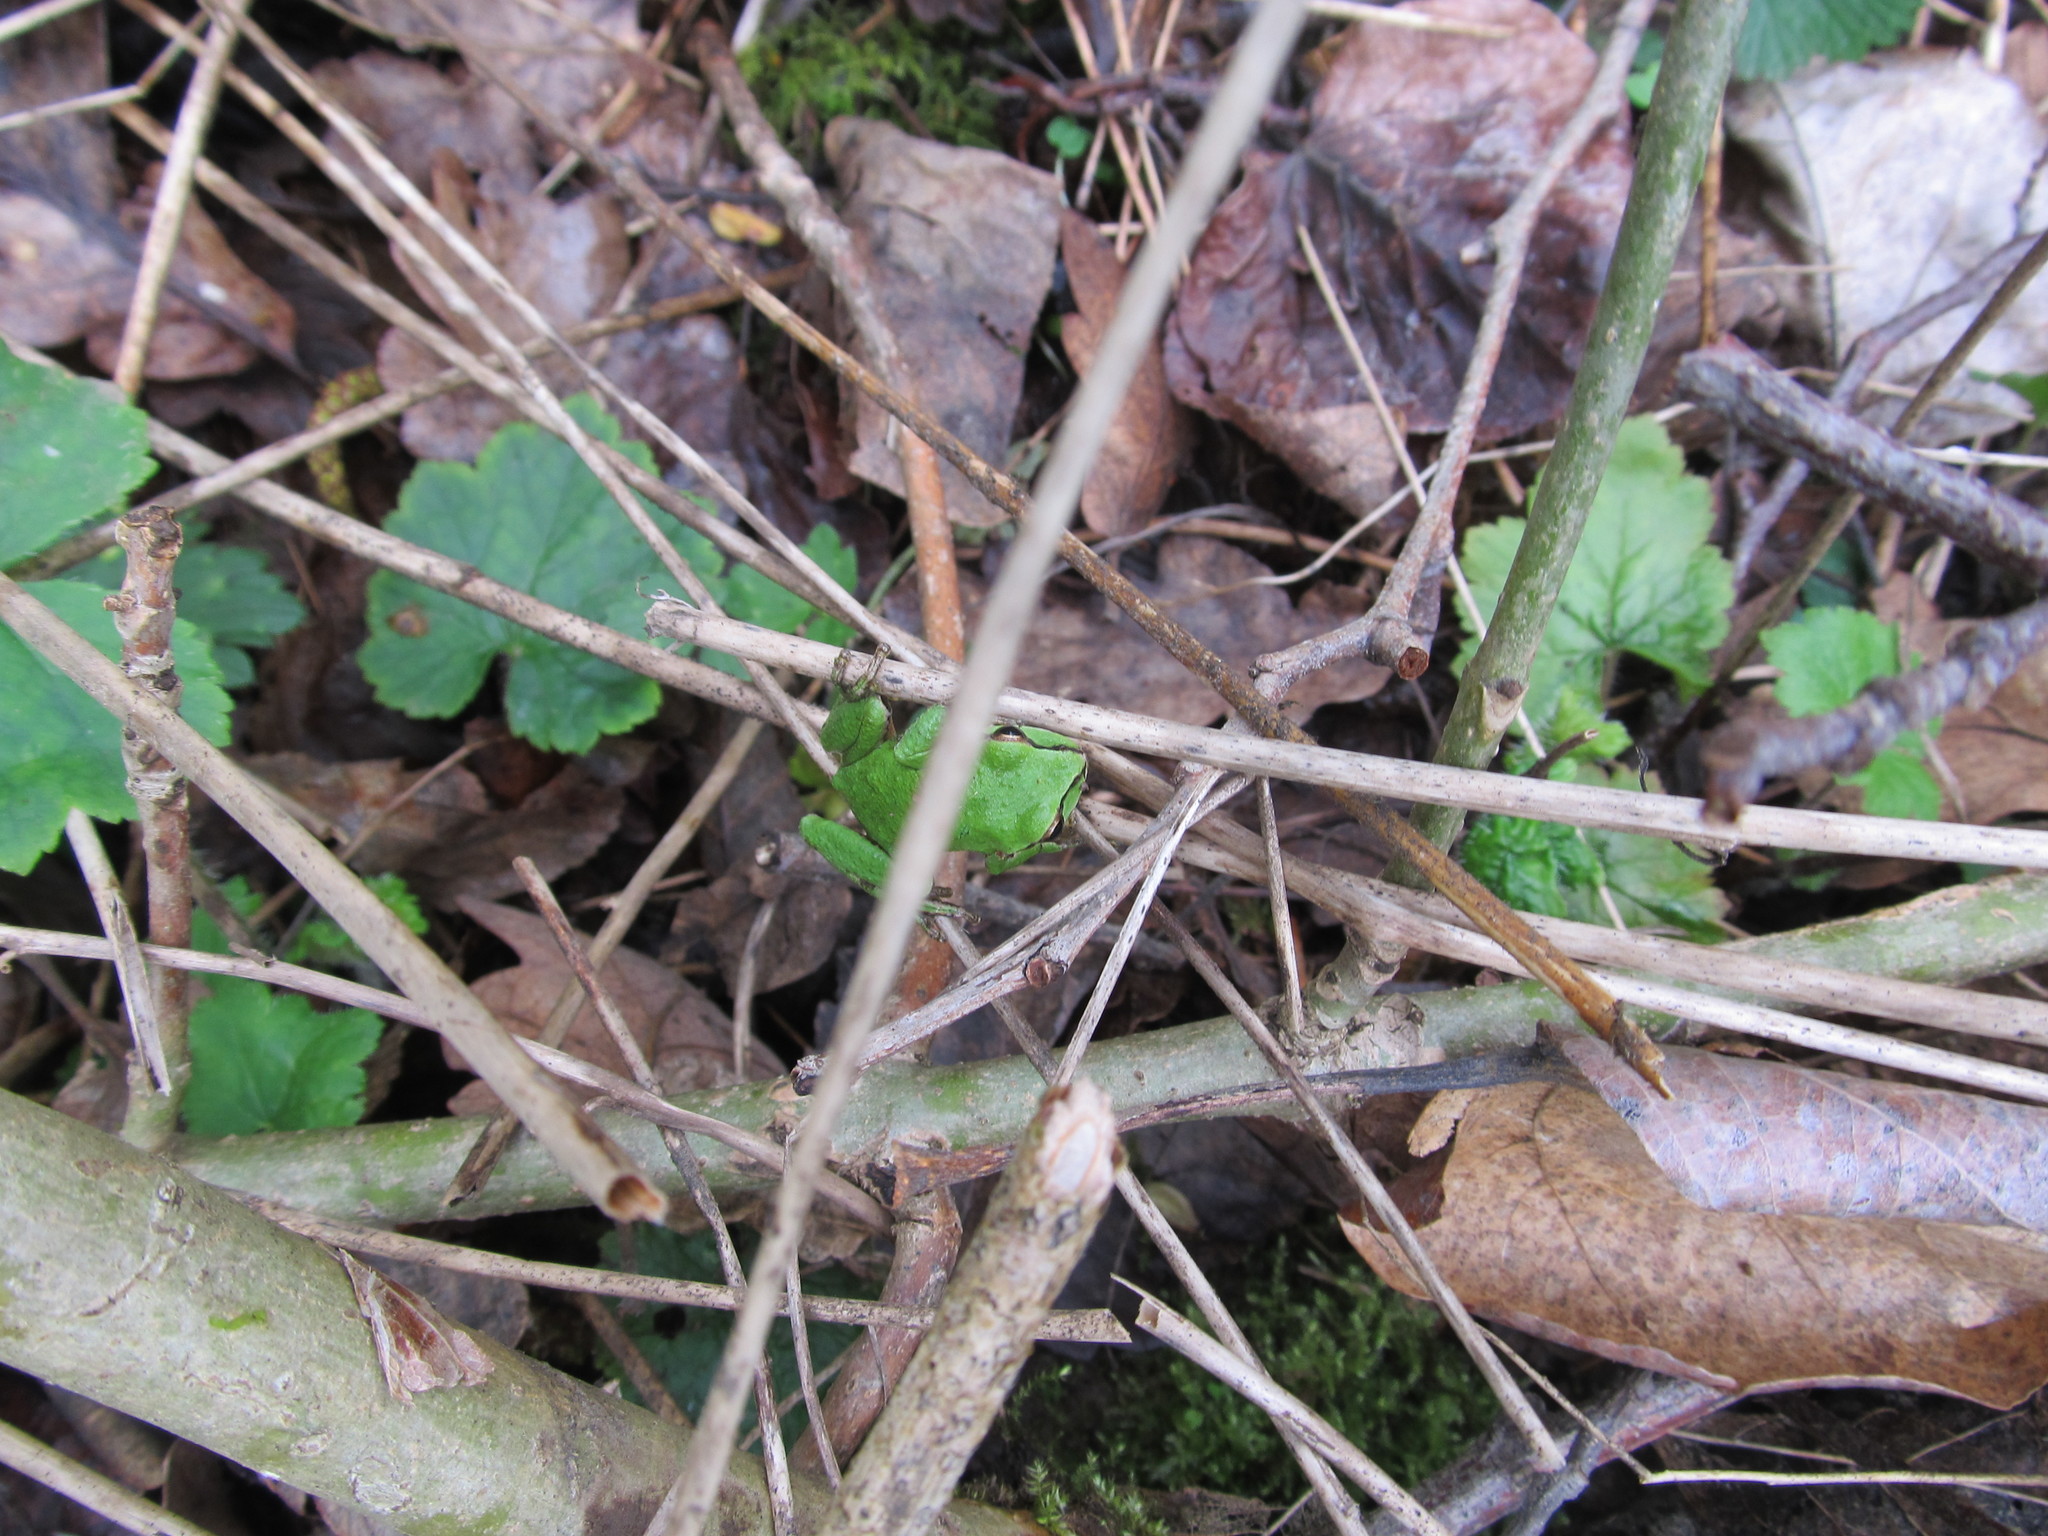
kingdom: Animalia
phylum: Chordata
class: Amphibia
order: Anura
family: Hylidae
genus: Pseudacris
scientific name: Pseudacris regilla
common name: Pacific chorus frog
